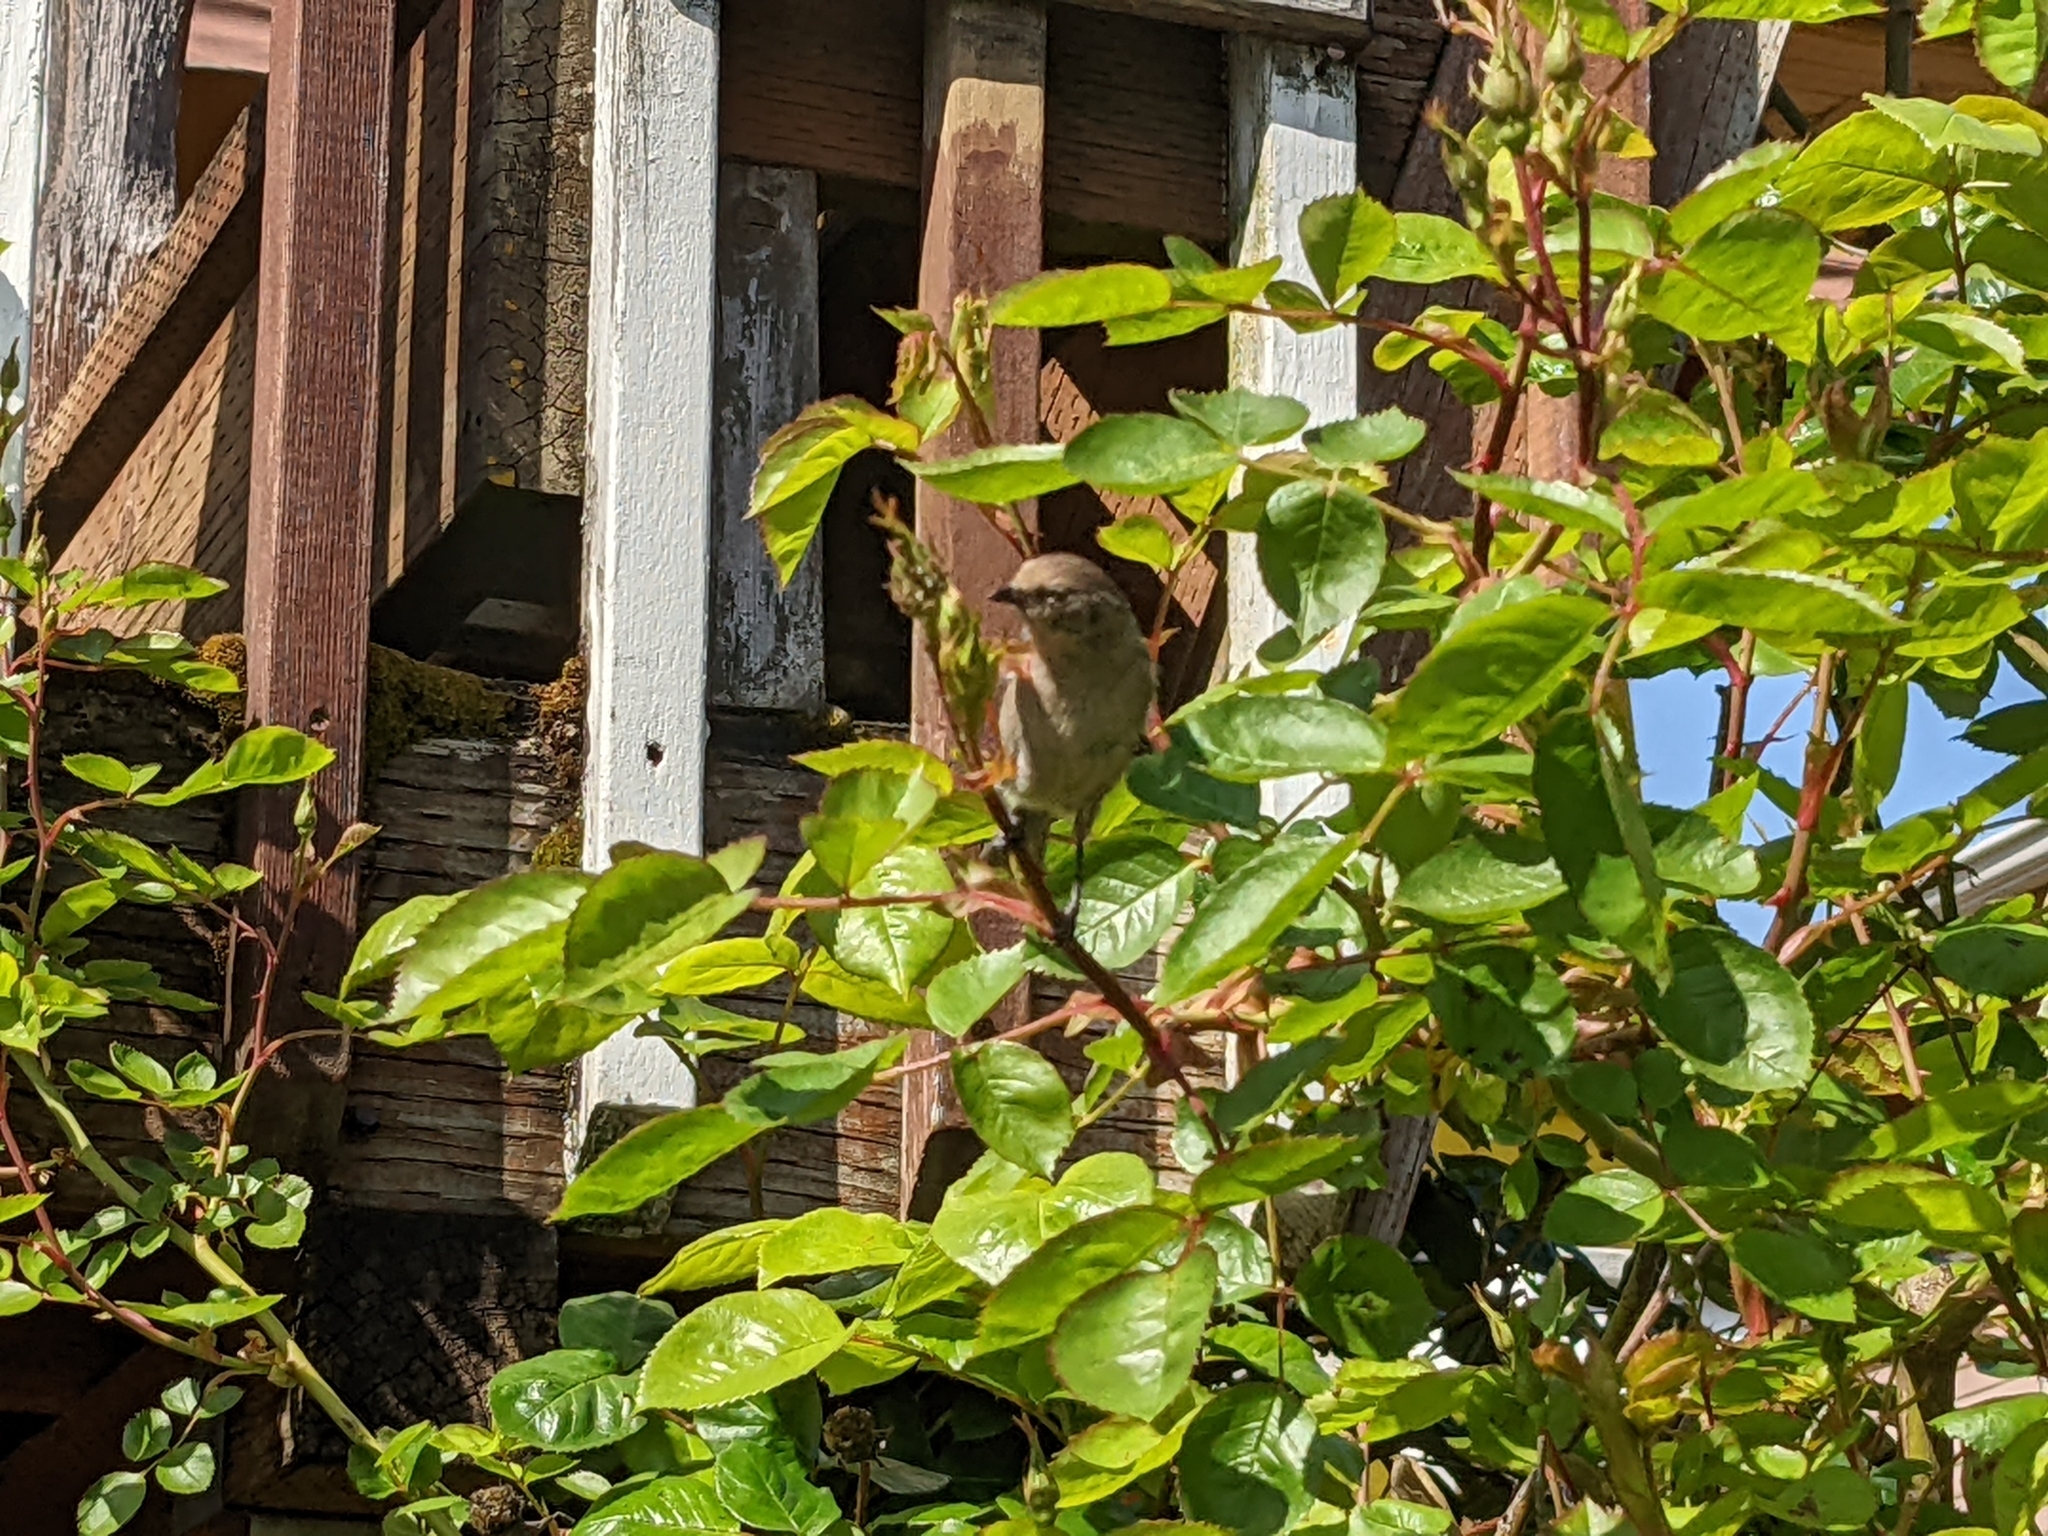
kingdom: Animalia
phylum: Chordata
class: Aves
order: Passeriformes
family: Aegithalidae
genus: Psaltriparus
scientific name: Psaltriparus minimus
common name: American bushtit
